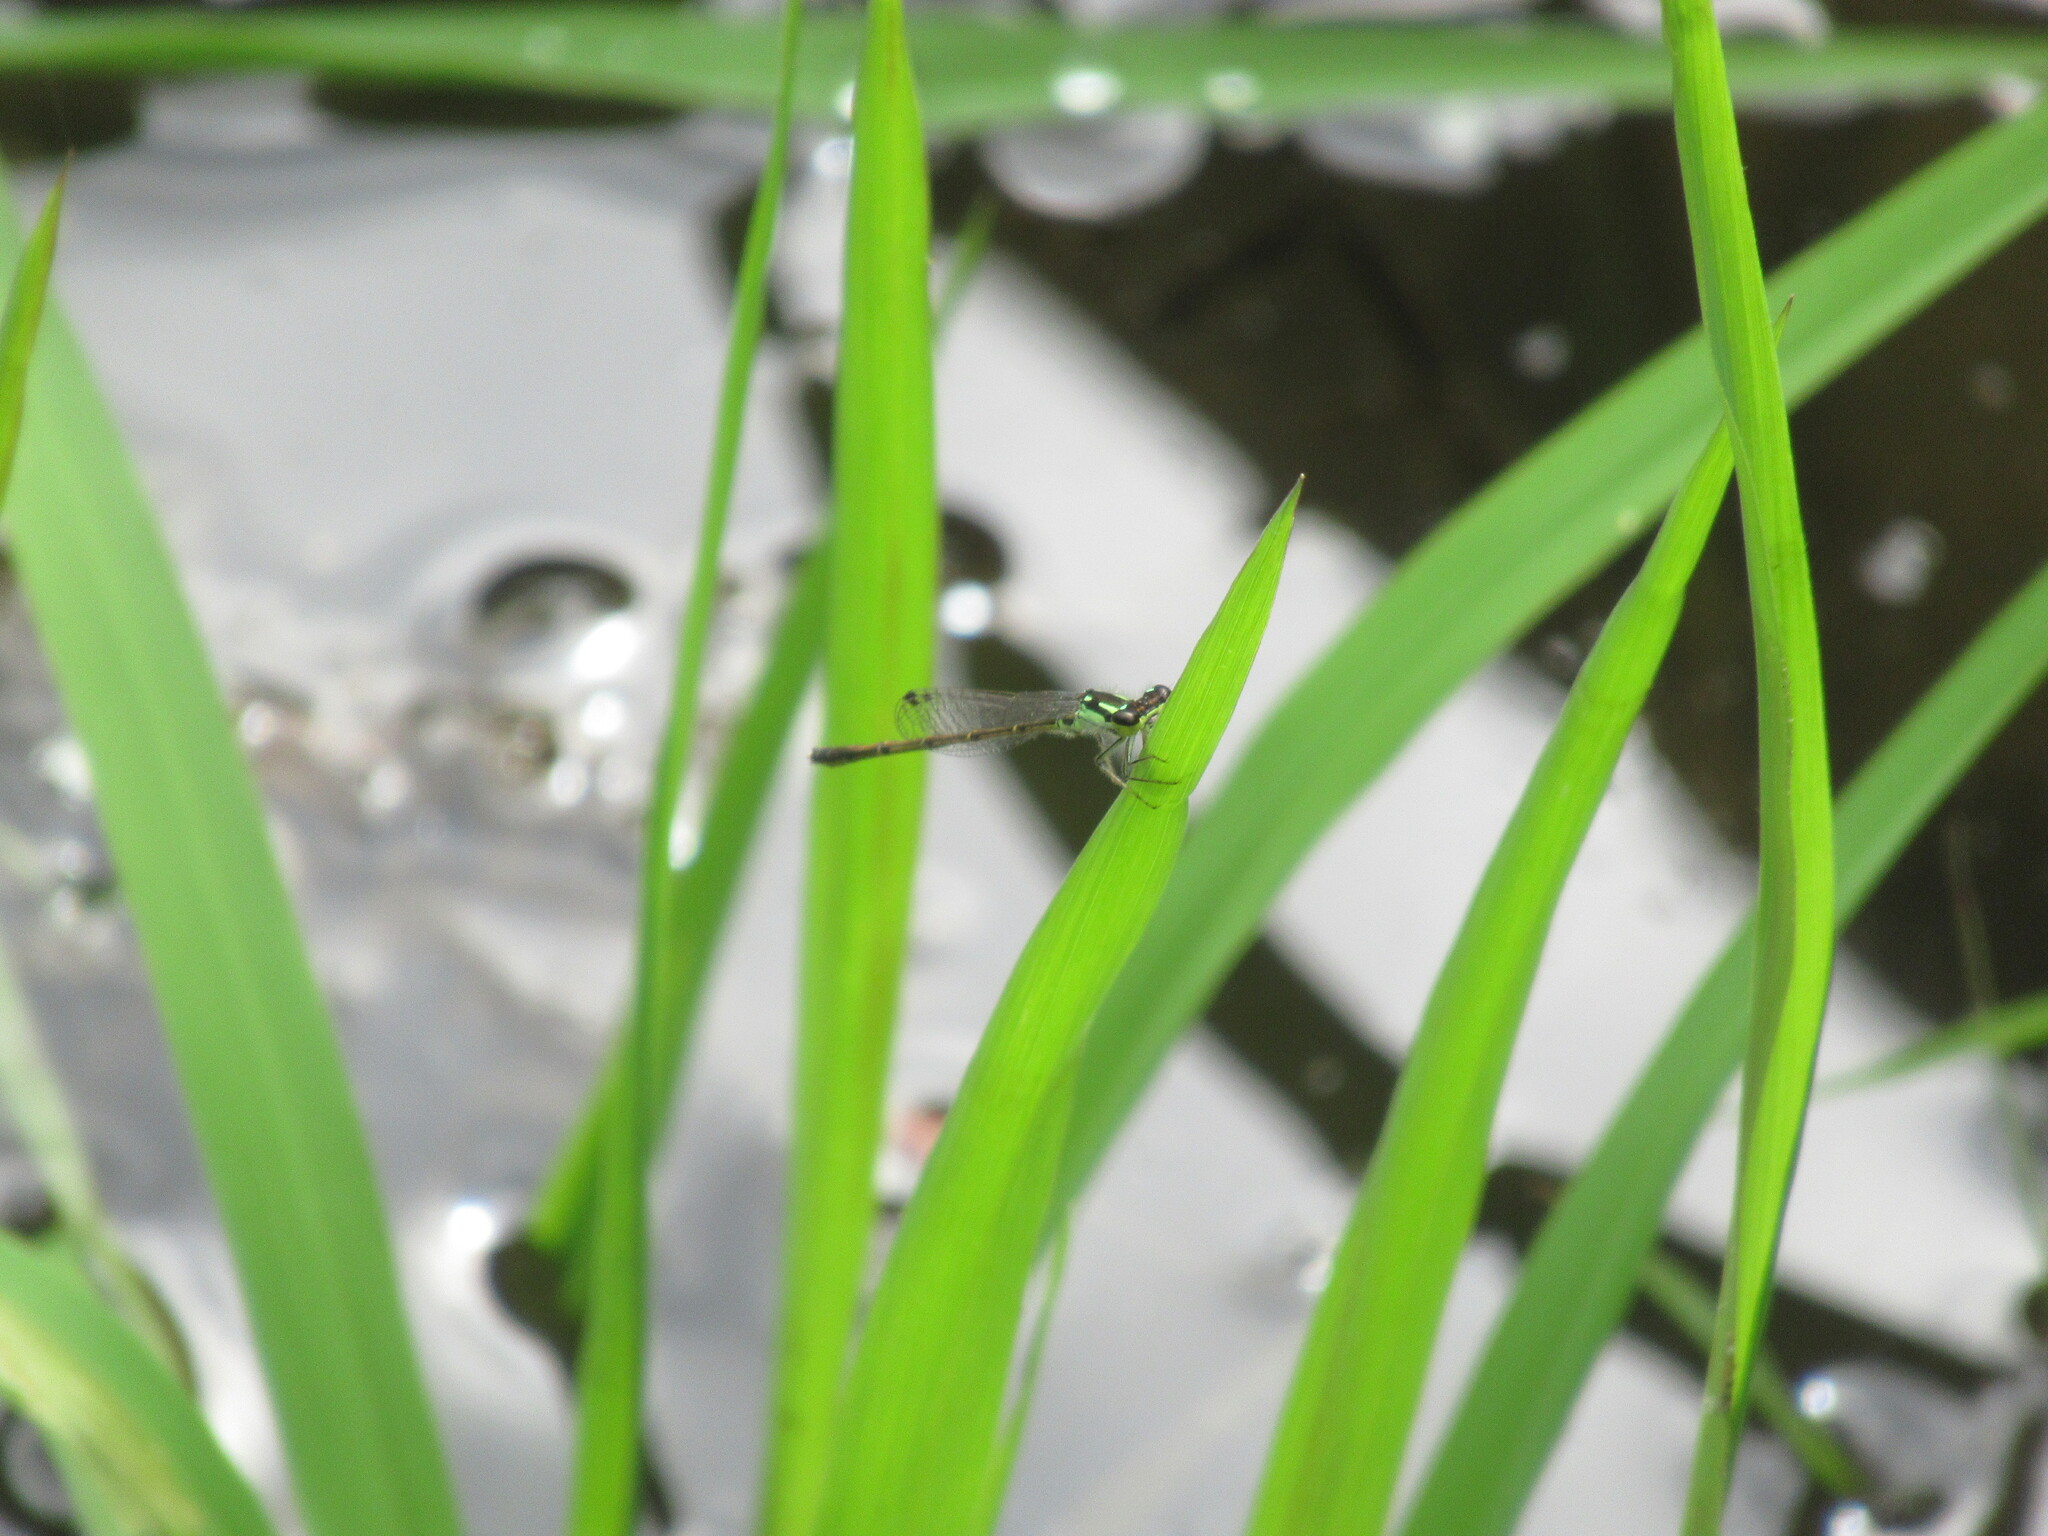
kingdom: Animalia
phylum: Arthropoda
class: Insecta
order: Odonata
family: Coenagrionidae
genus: Ischnura
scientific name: Ischnura posita
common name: Fragile forktail
